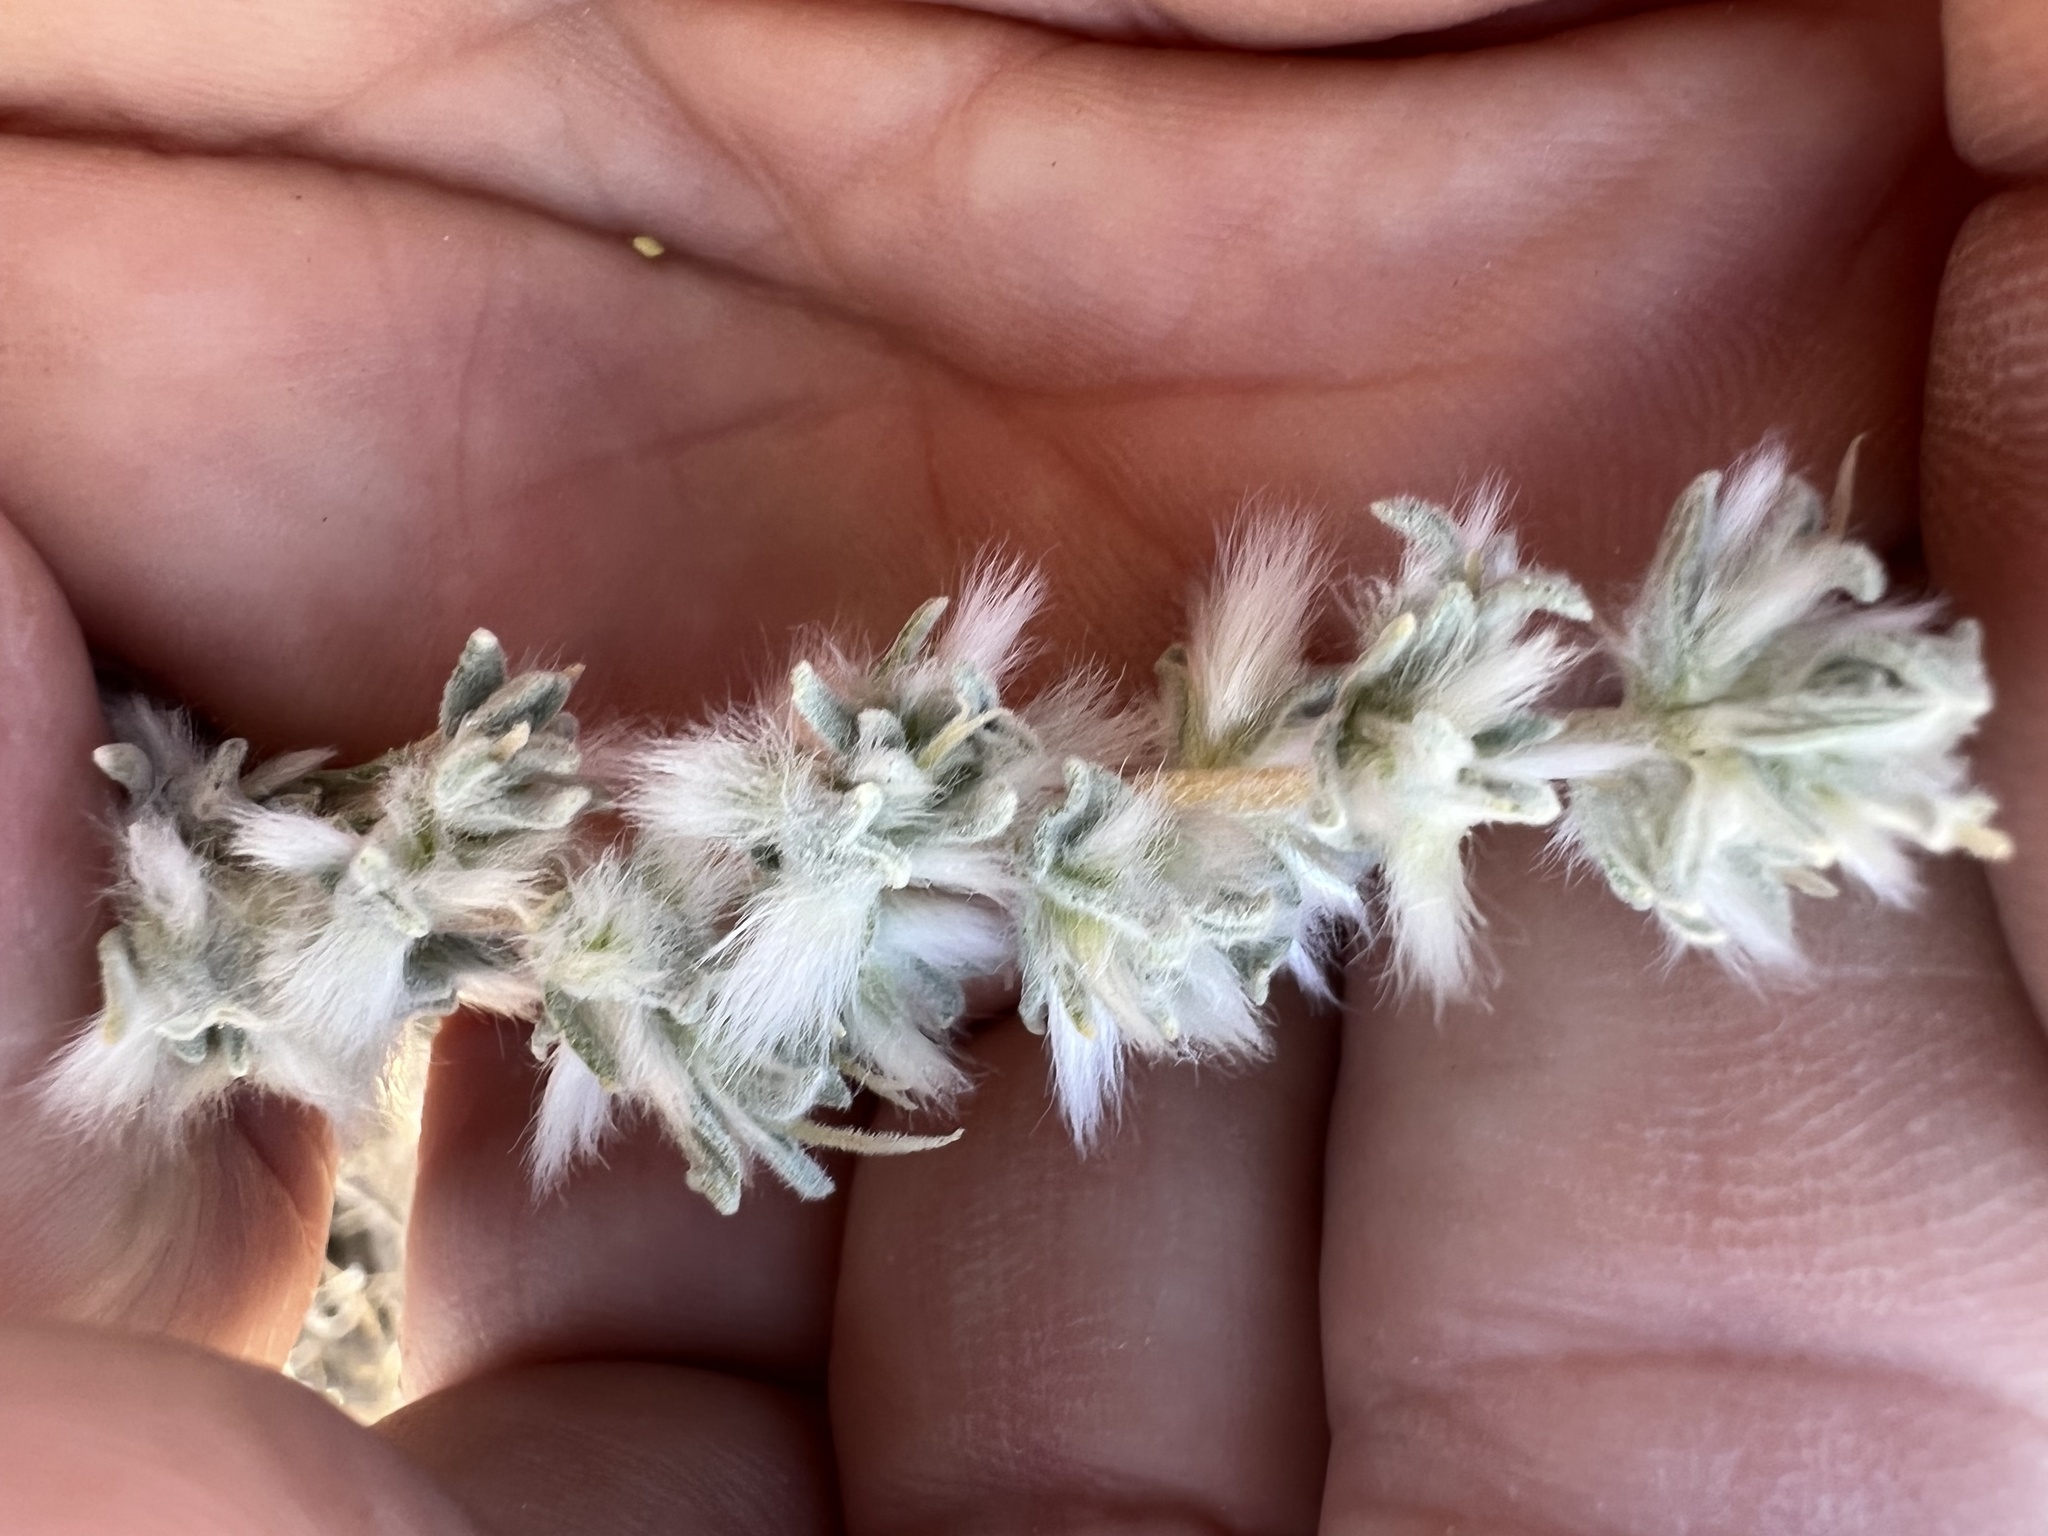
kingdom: Plantae
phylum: Tracheophyta
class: Magnoliopsida
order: Caryophyllales
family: Amaranthaceae
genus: Krascheninnikovia
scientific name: Krascheninnikovia lanata
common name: Winterfat
